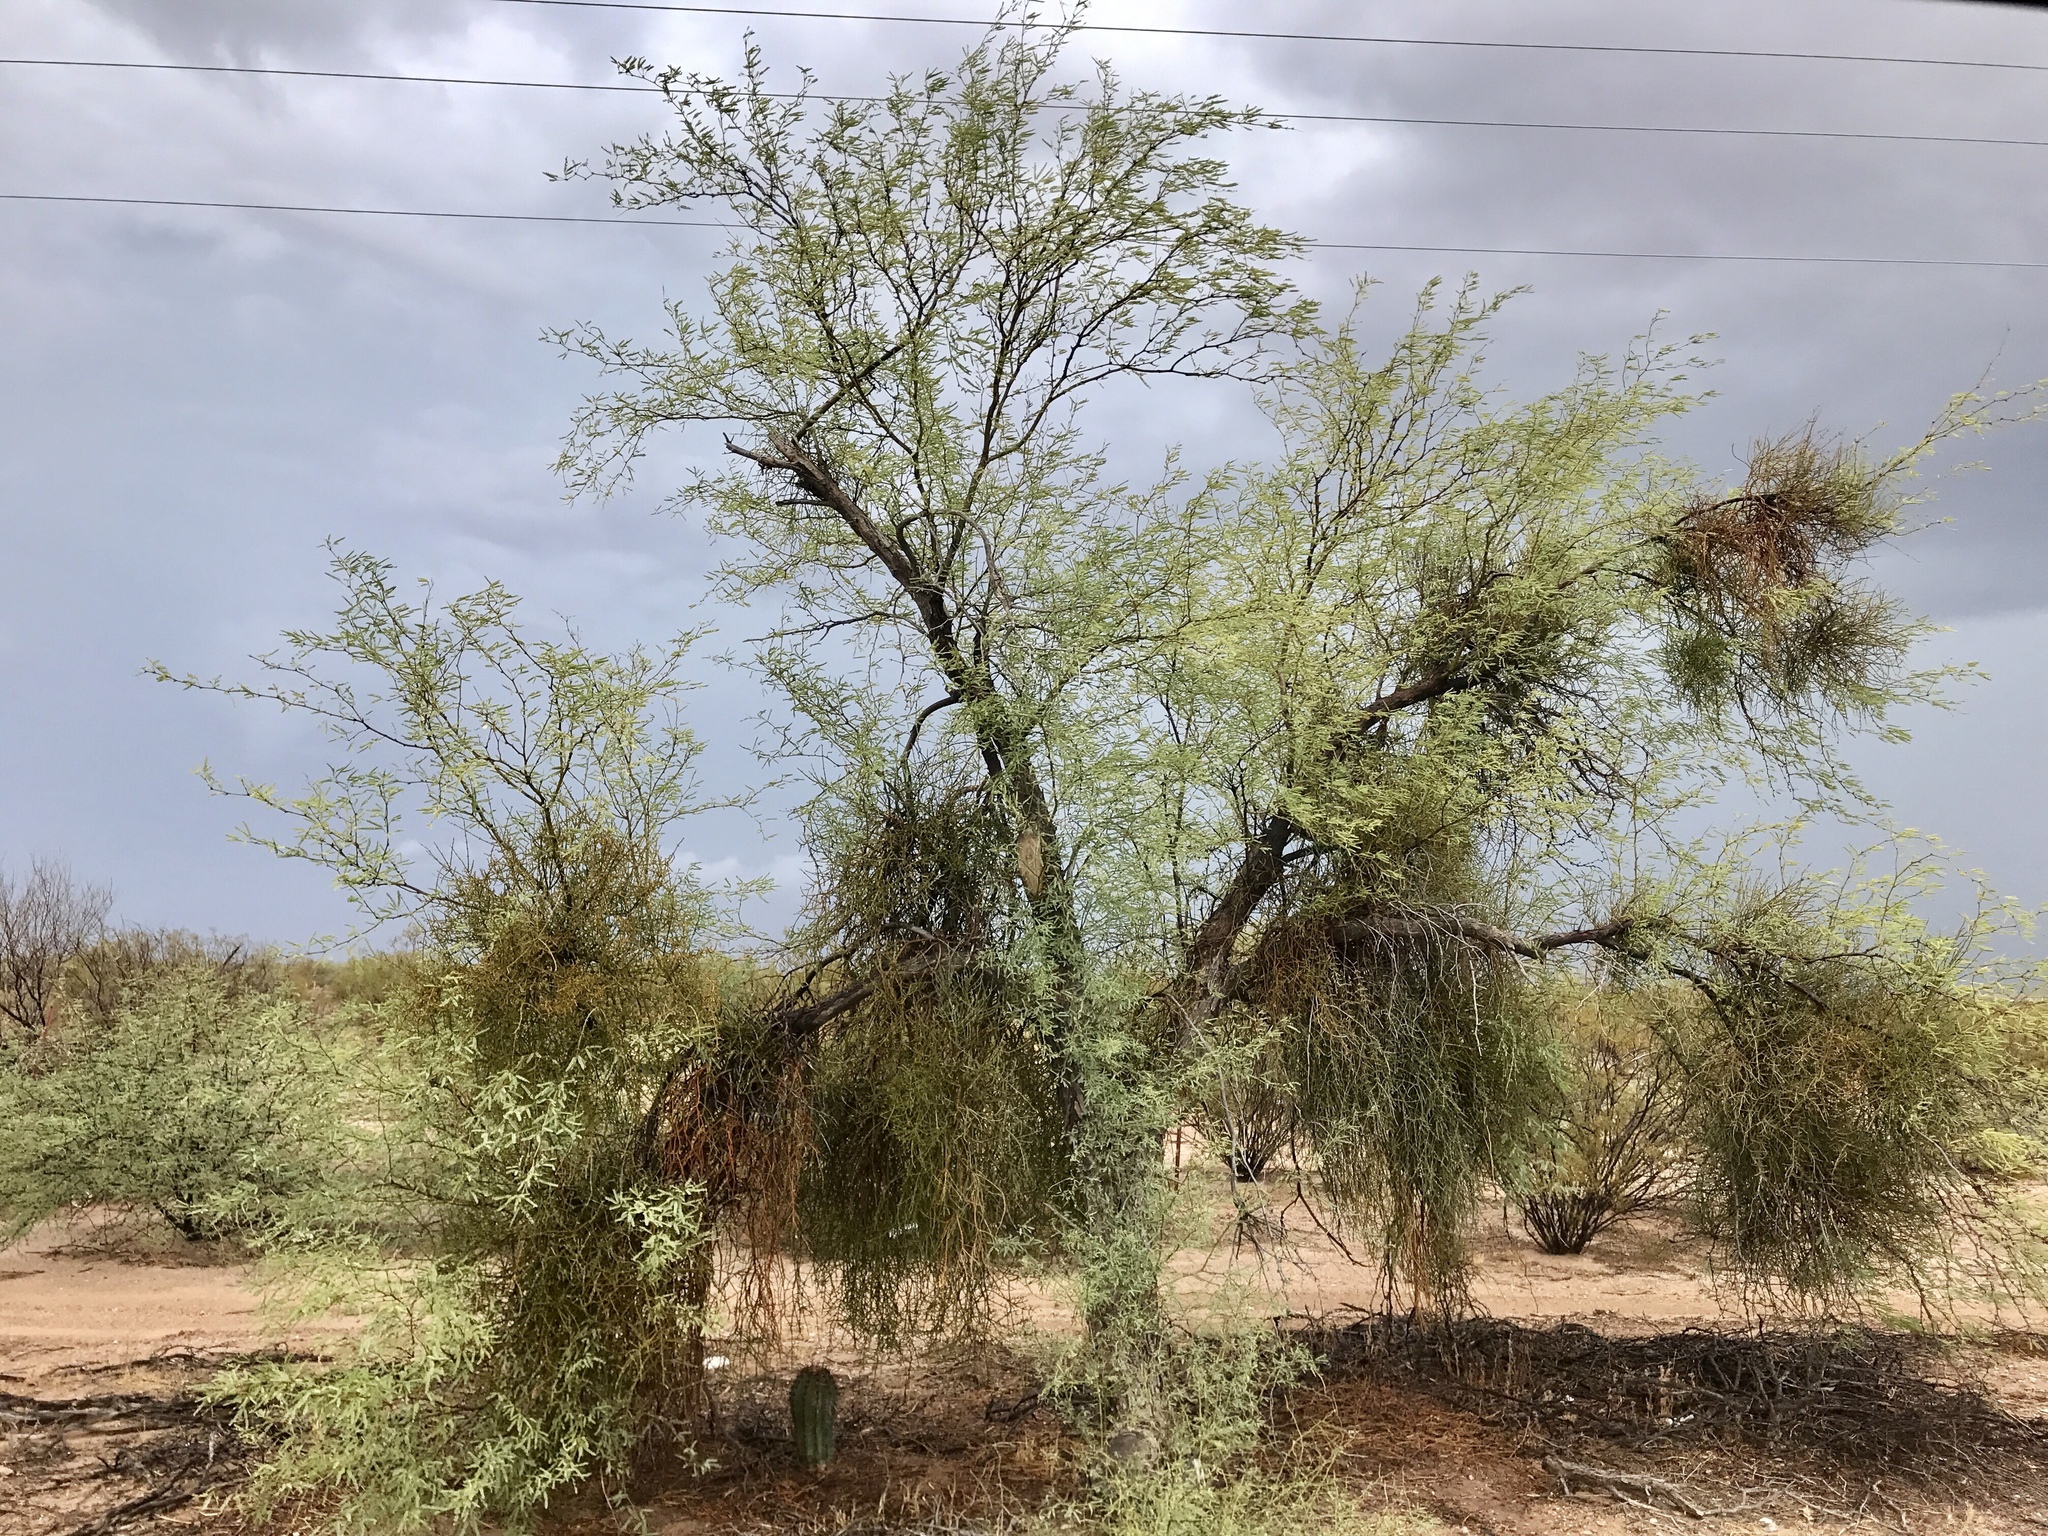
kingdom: Plantae
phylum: Tracheophyta
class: Magnoliopsida
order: Fabales
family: Fabaceae
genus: Prosopis
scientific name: Prosopis velutina
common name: Velvet mesquite
